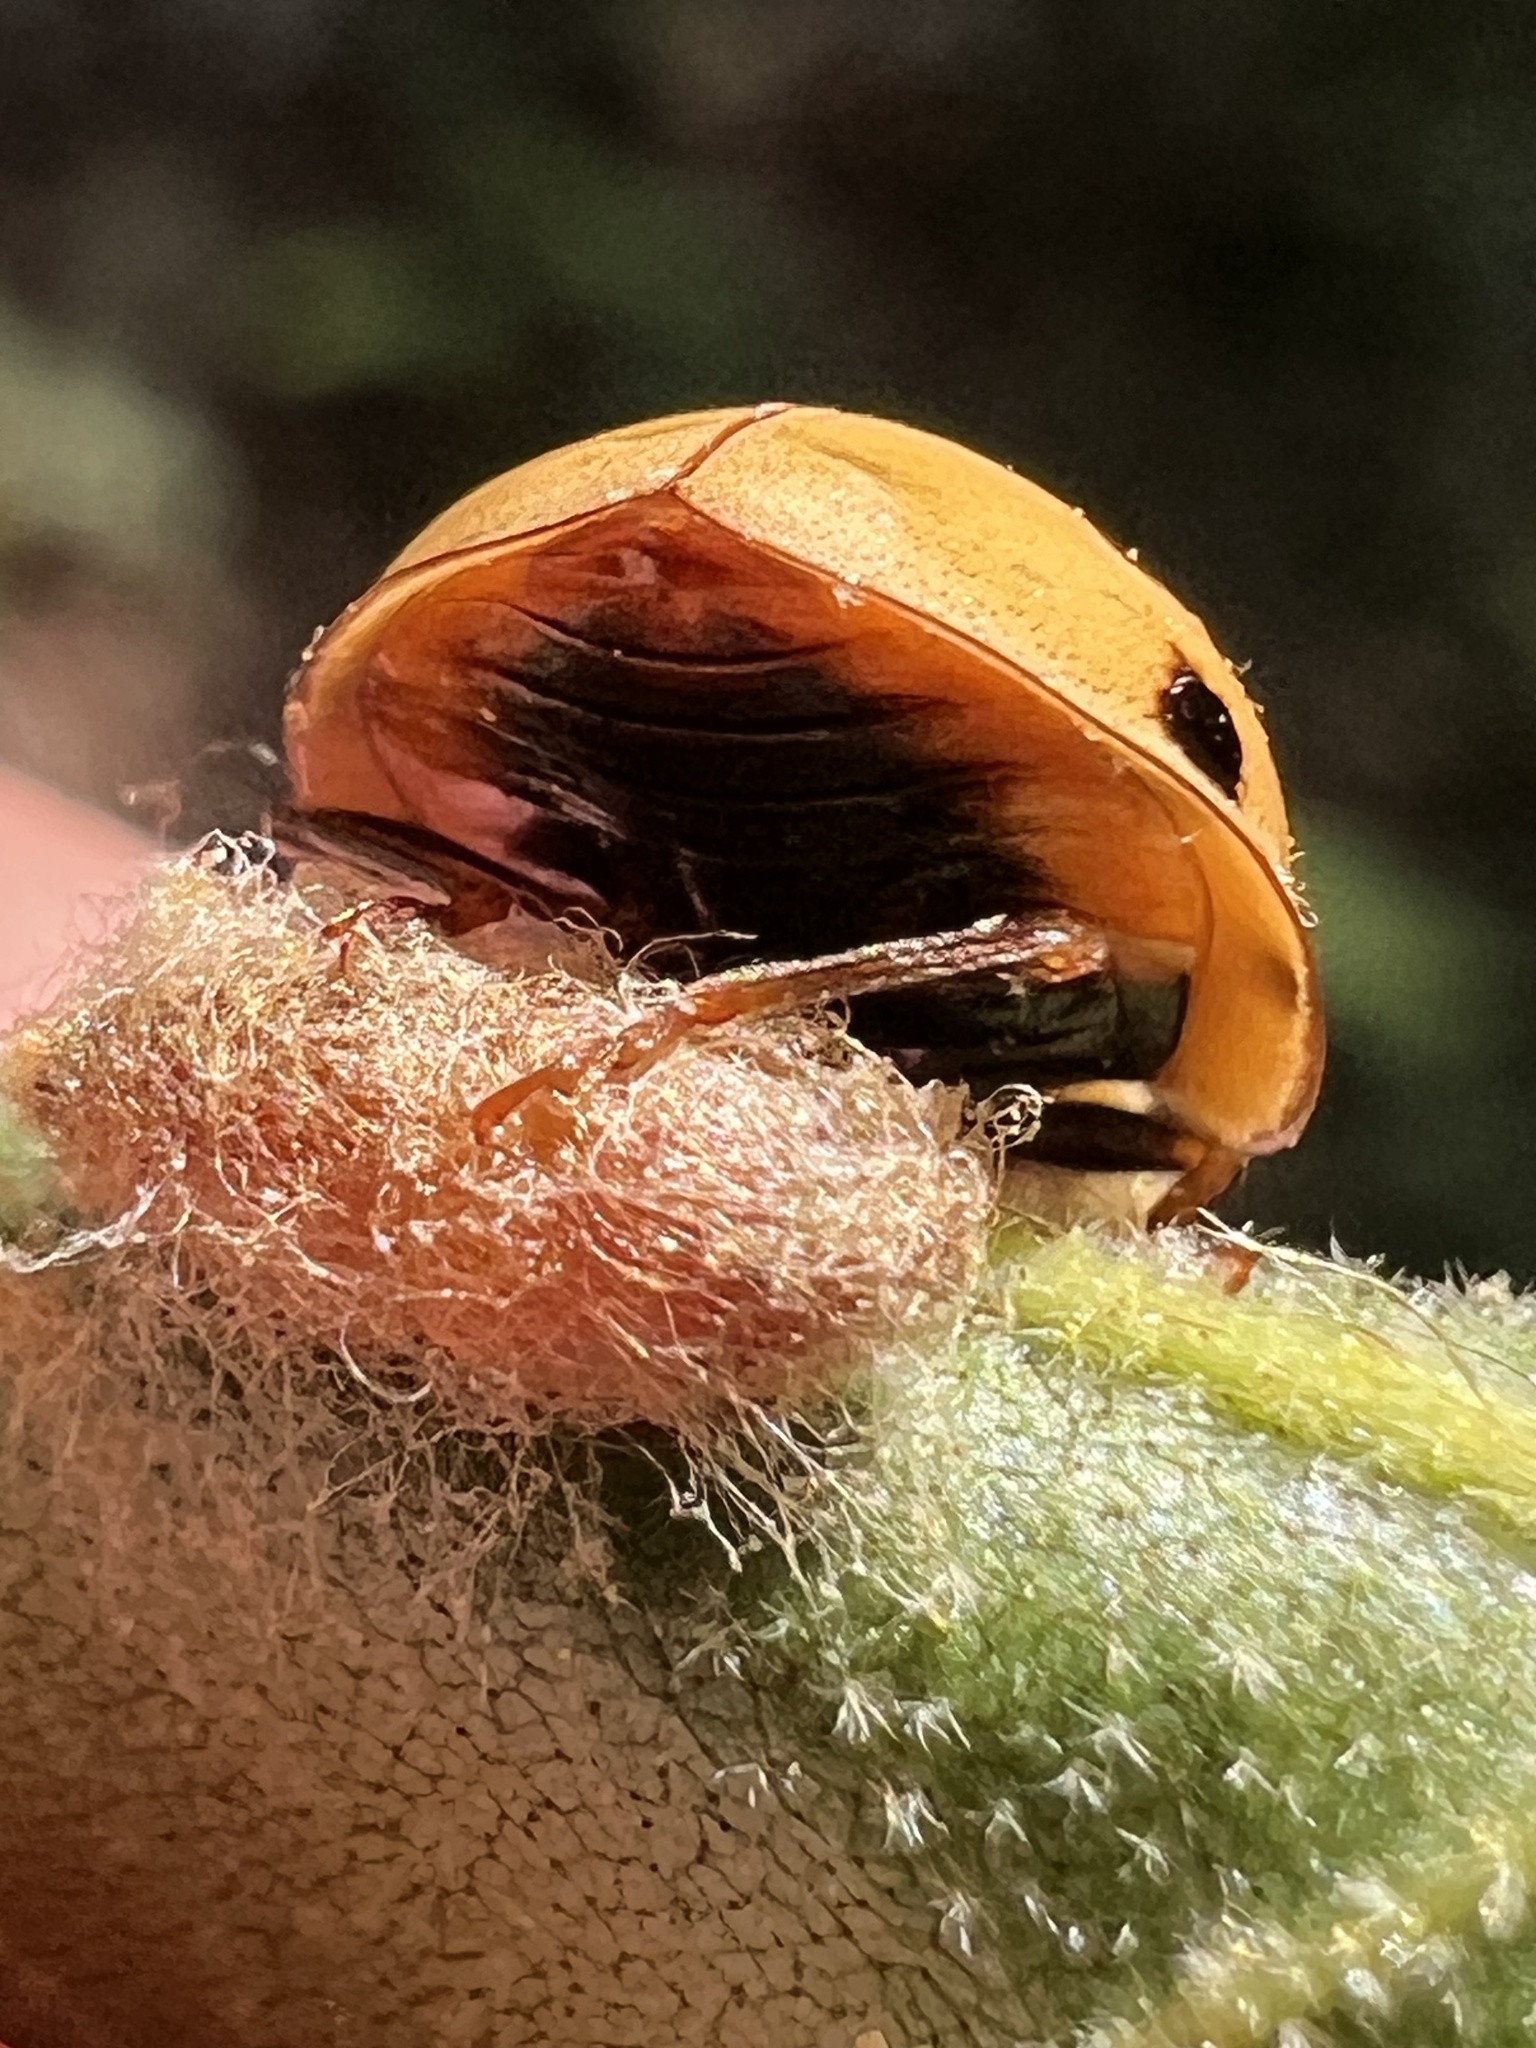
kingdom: Animalia
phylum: Arthropoda
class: Insecta
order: Hymenoptera
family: Braconidae
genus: Dinocampus
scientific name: Dinocampus coccinellae
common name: Braconid wasp
